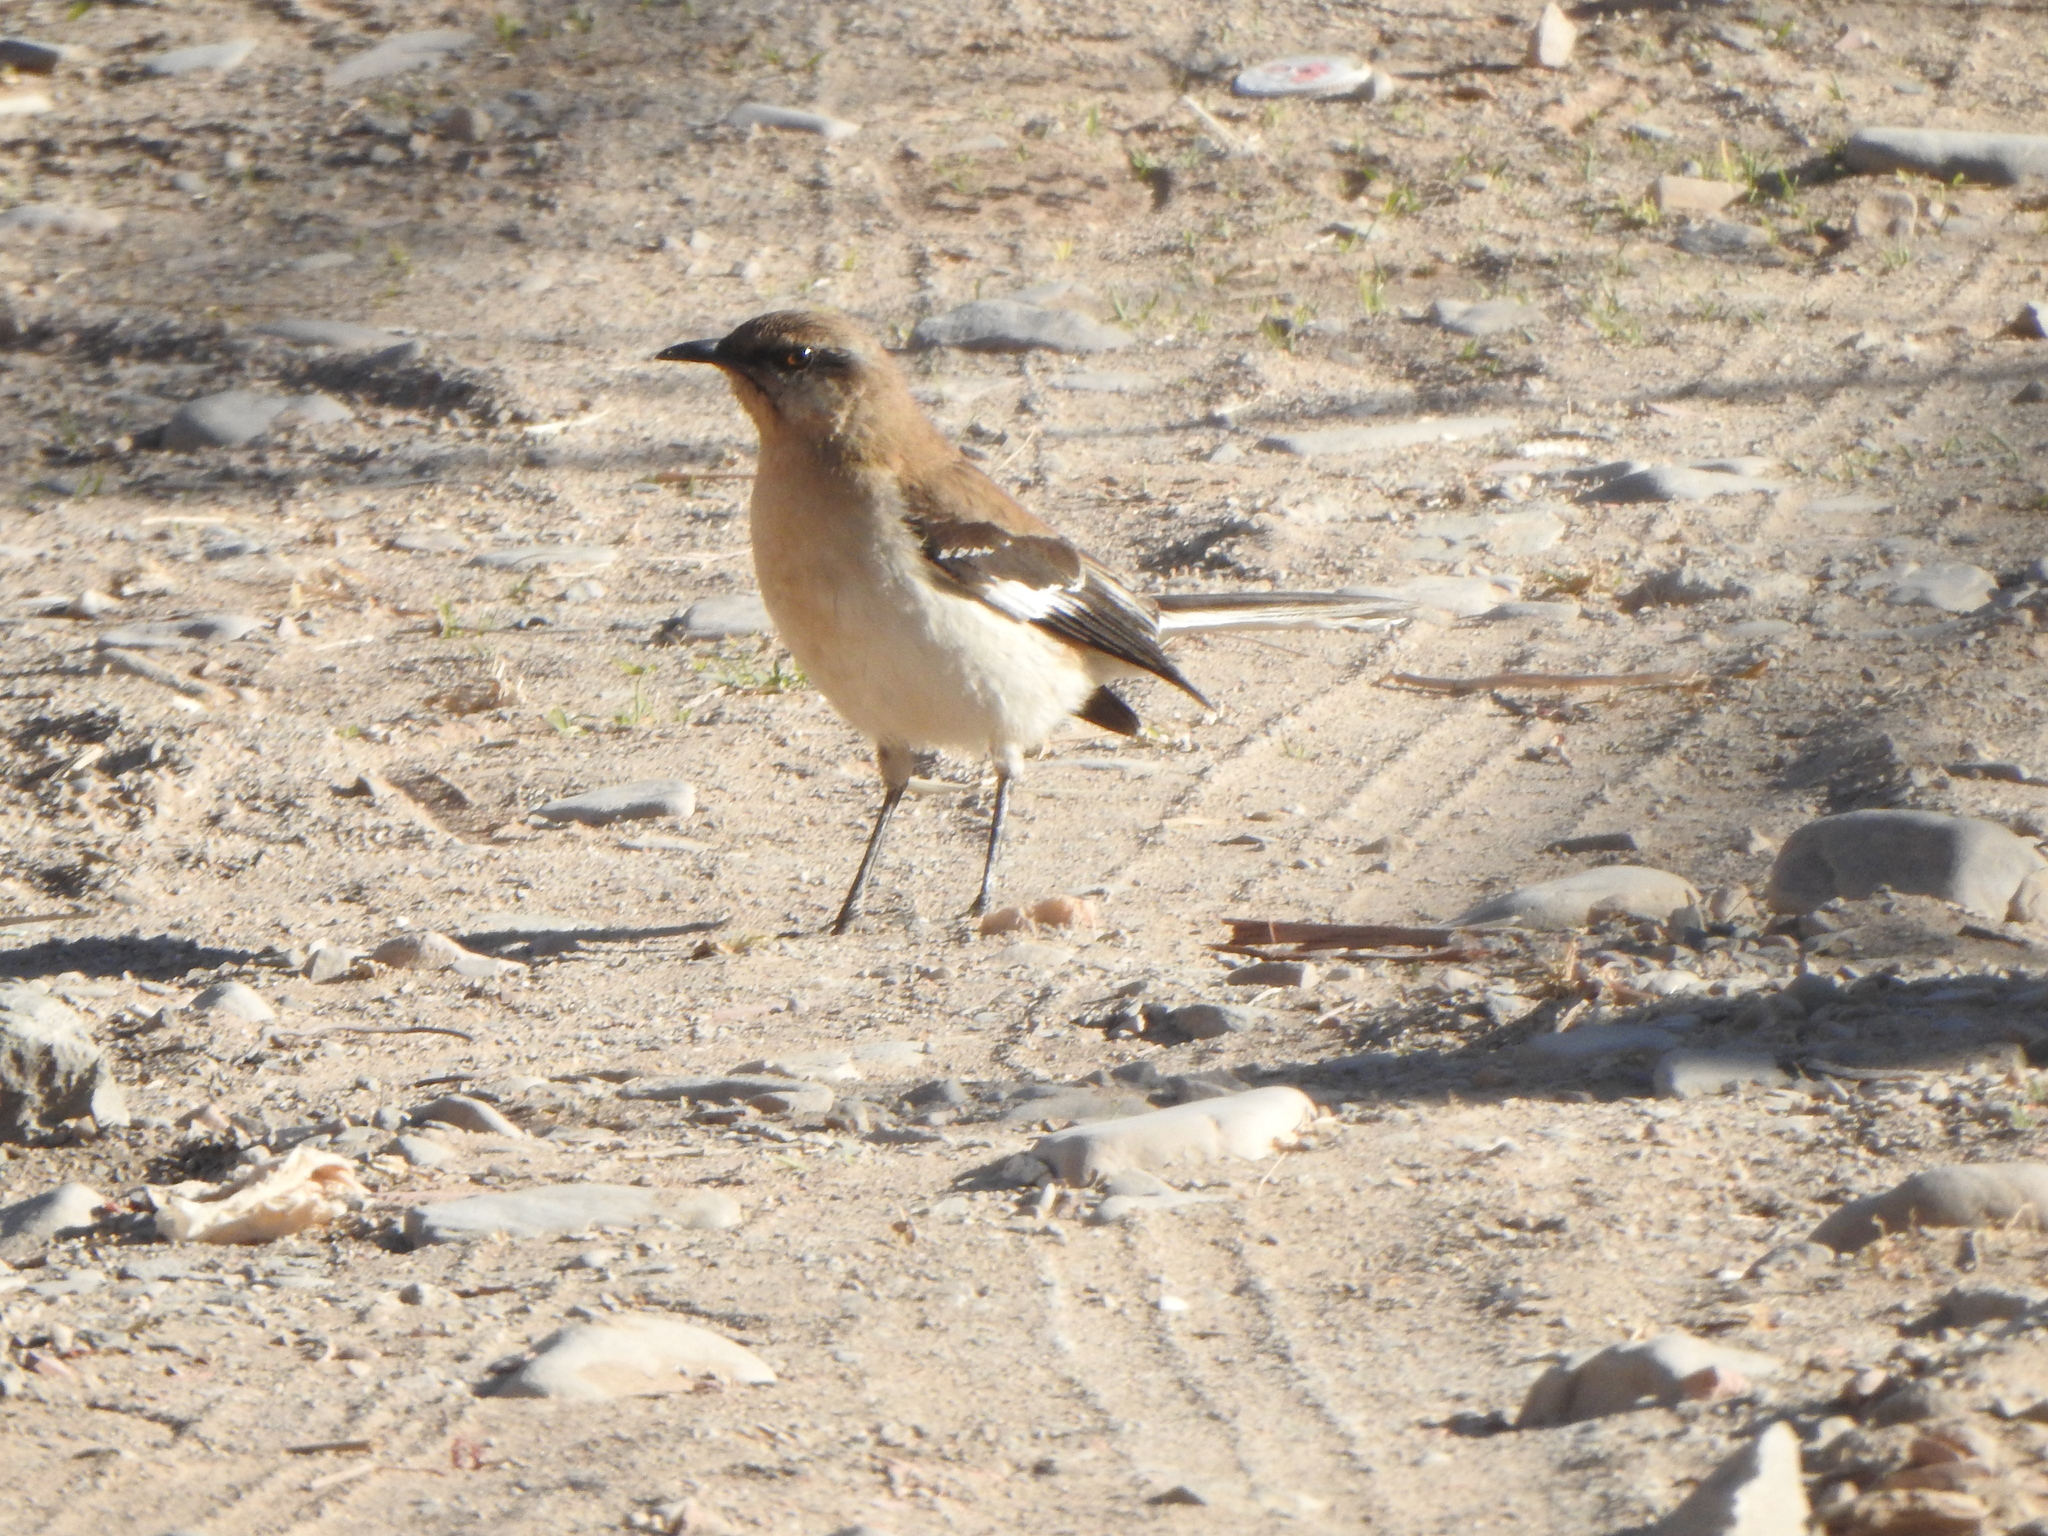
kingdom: Animalia
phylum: Chordata
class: Aves
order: Passeriformes
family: Mimidae
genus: Mimus
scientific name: Mimus dorsalis
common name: Brown-backed mockingbird
